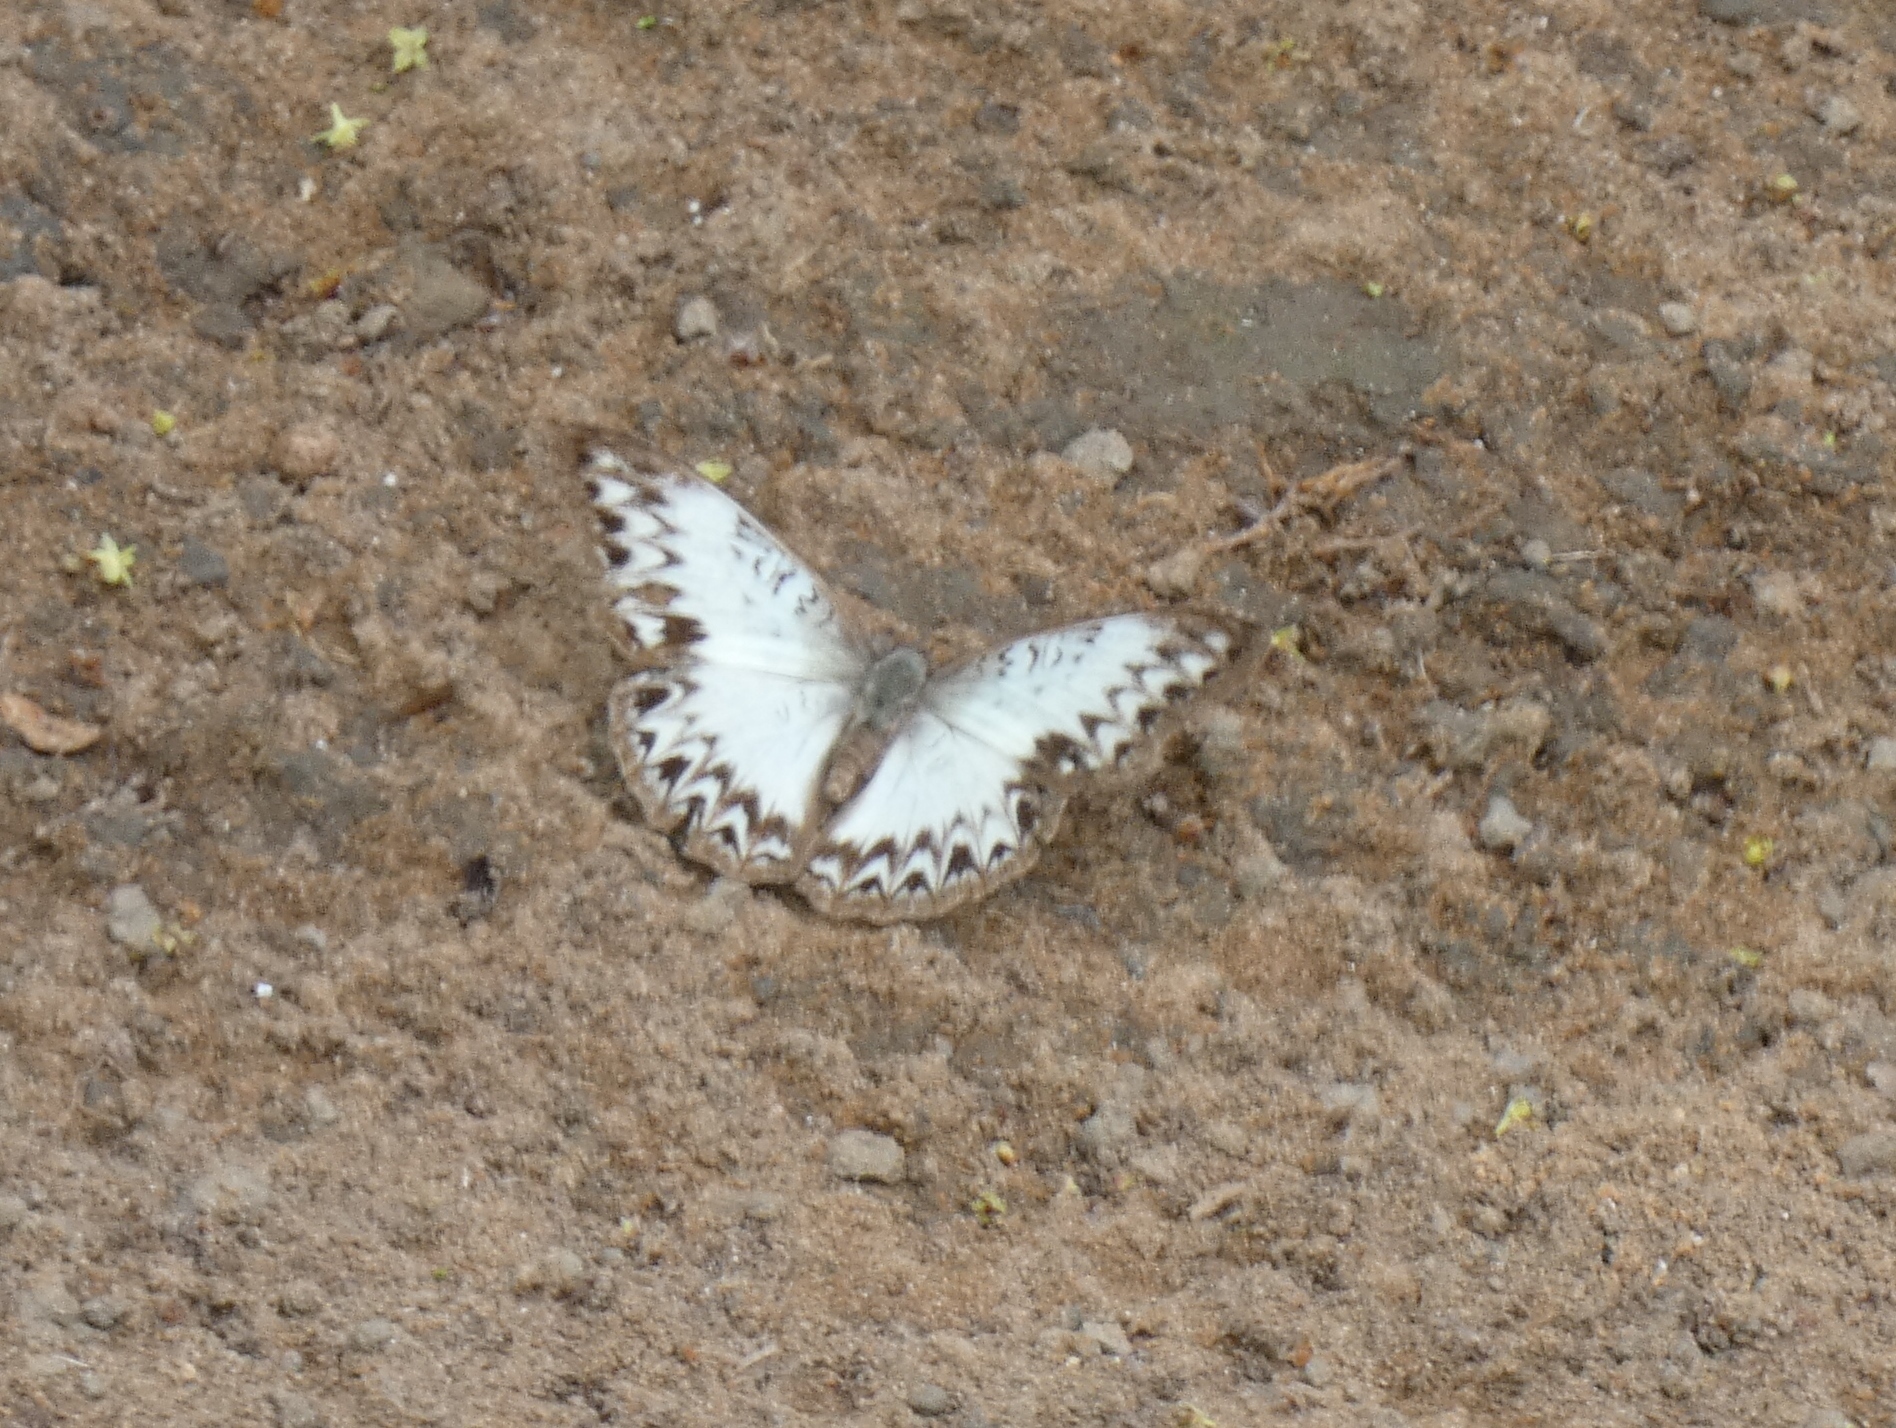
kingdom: Animalia
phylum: Arthropoda
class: Insecta
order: Lepidoptera
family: Nymphalidae
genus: Cymothoe
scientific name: Cymothoe caenis
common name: Common glider
